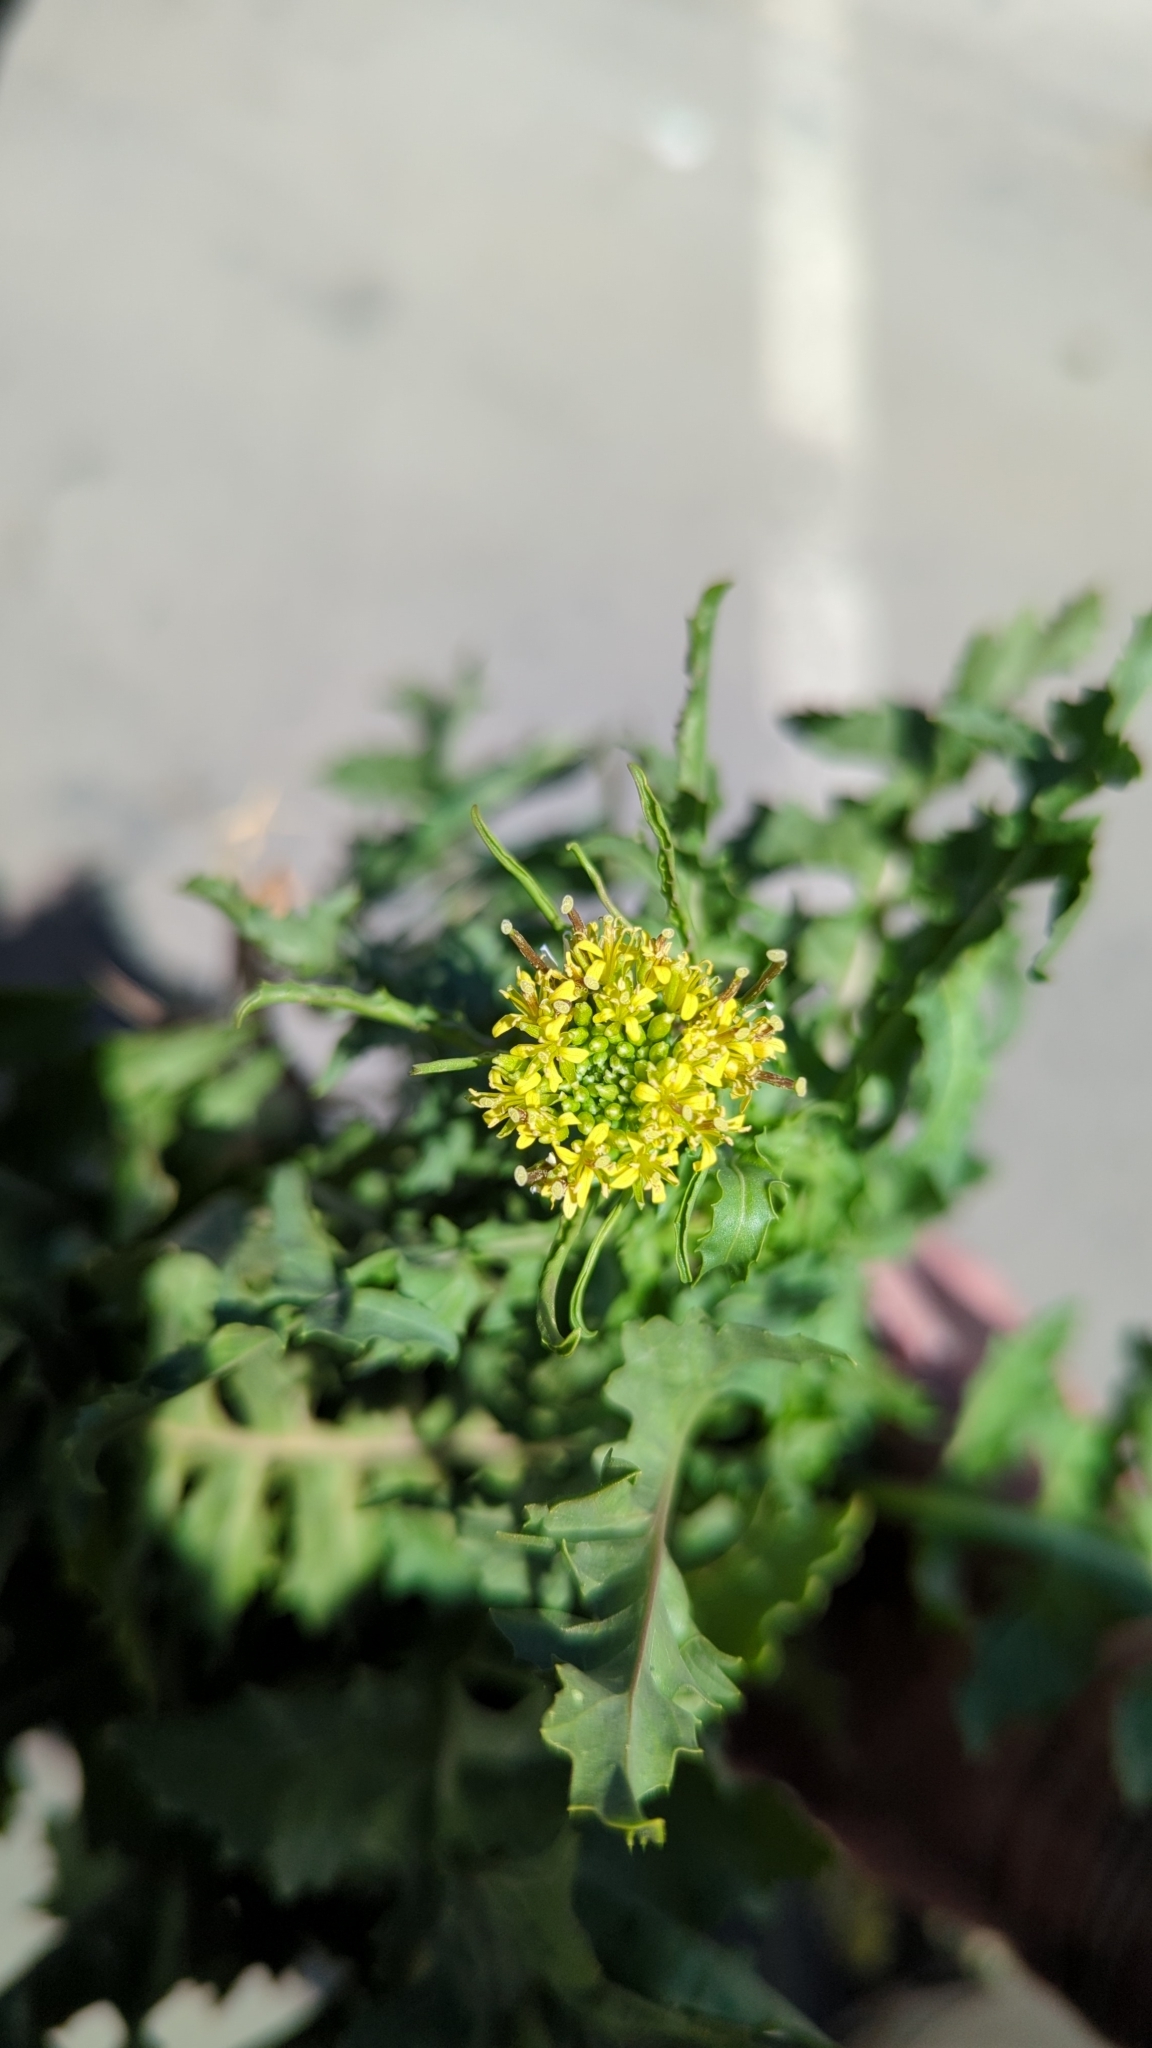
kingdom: Plantae
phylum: Tracheophyta
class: Magnoliopsida
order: Brassicales
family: Brassicaceae
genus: Sisymbrium
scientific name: Sisymbrium irio
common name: London rocket
